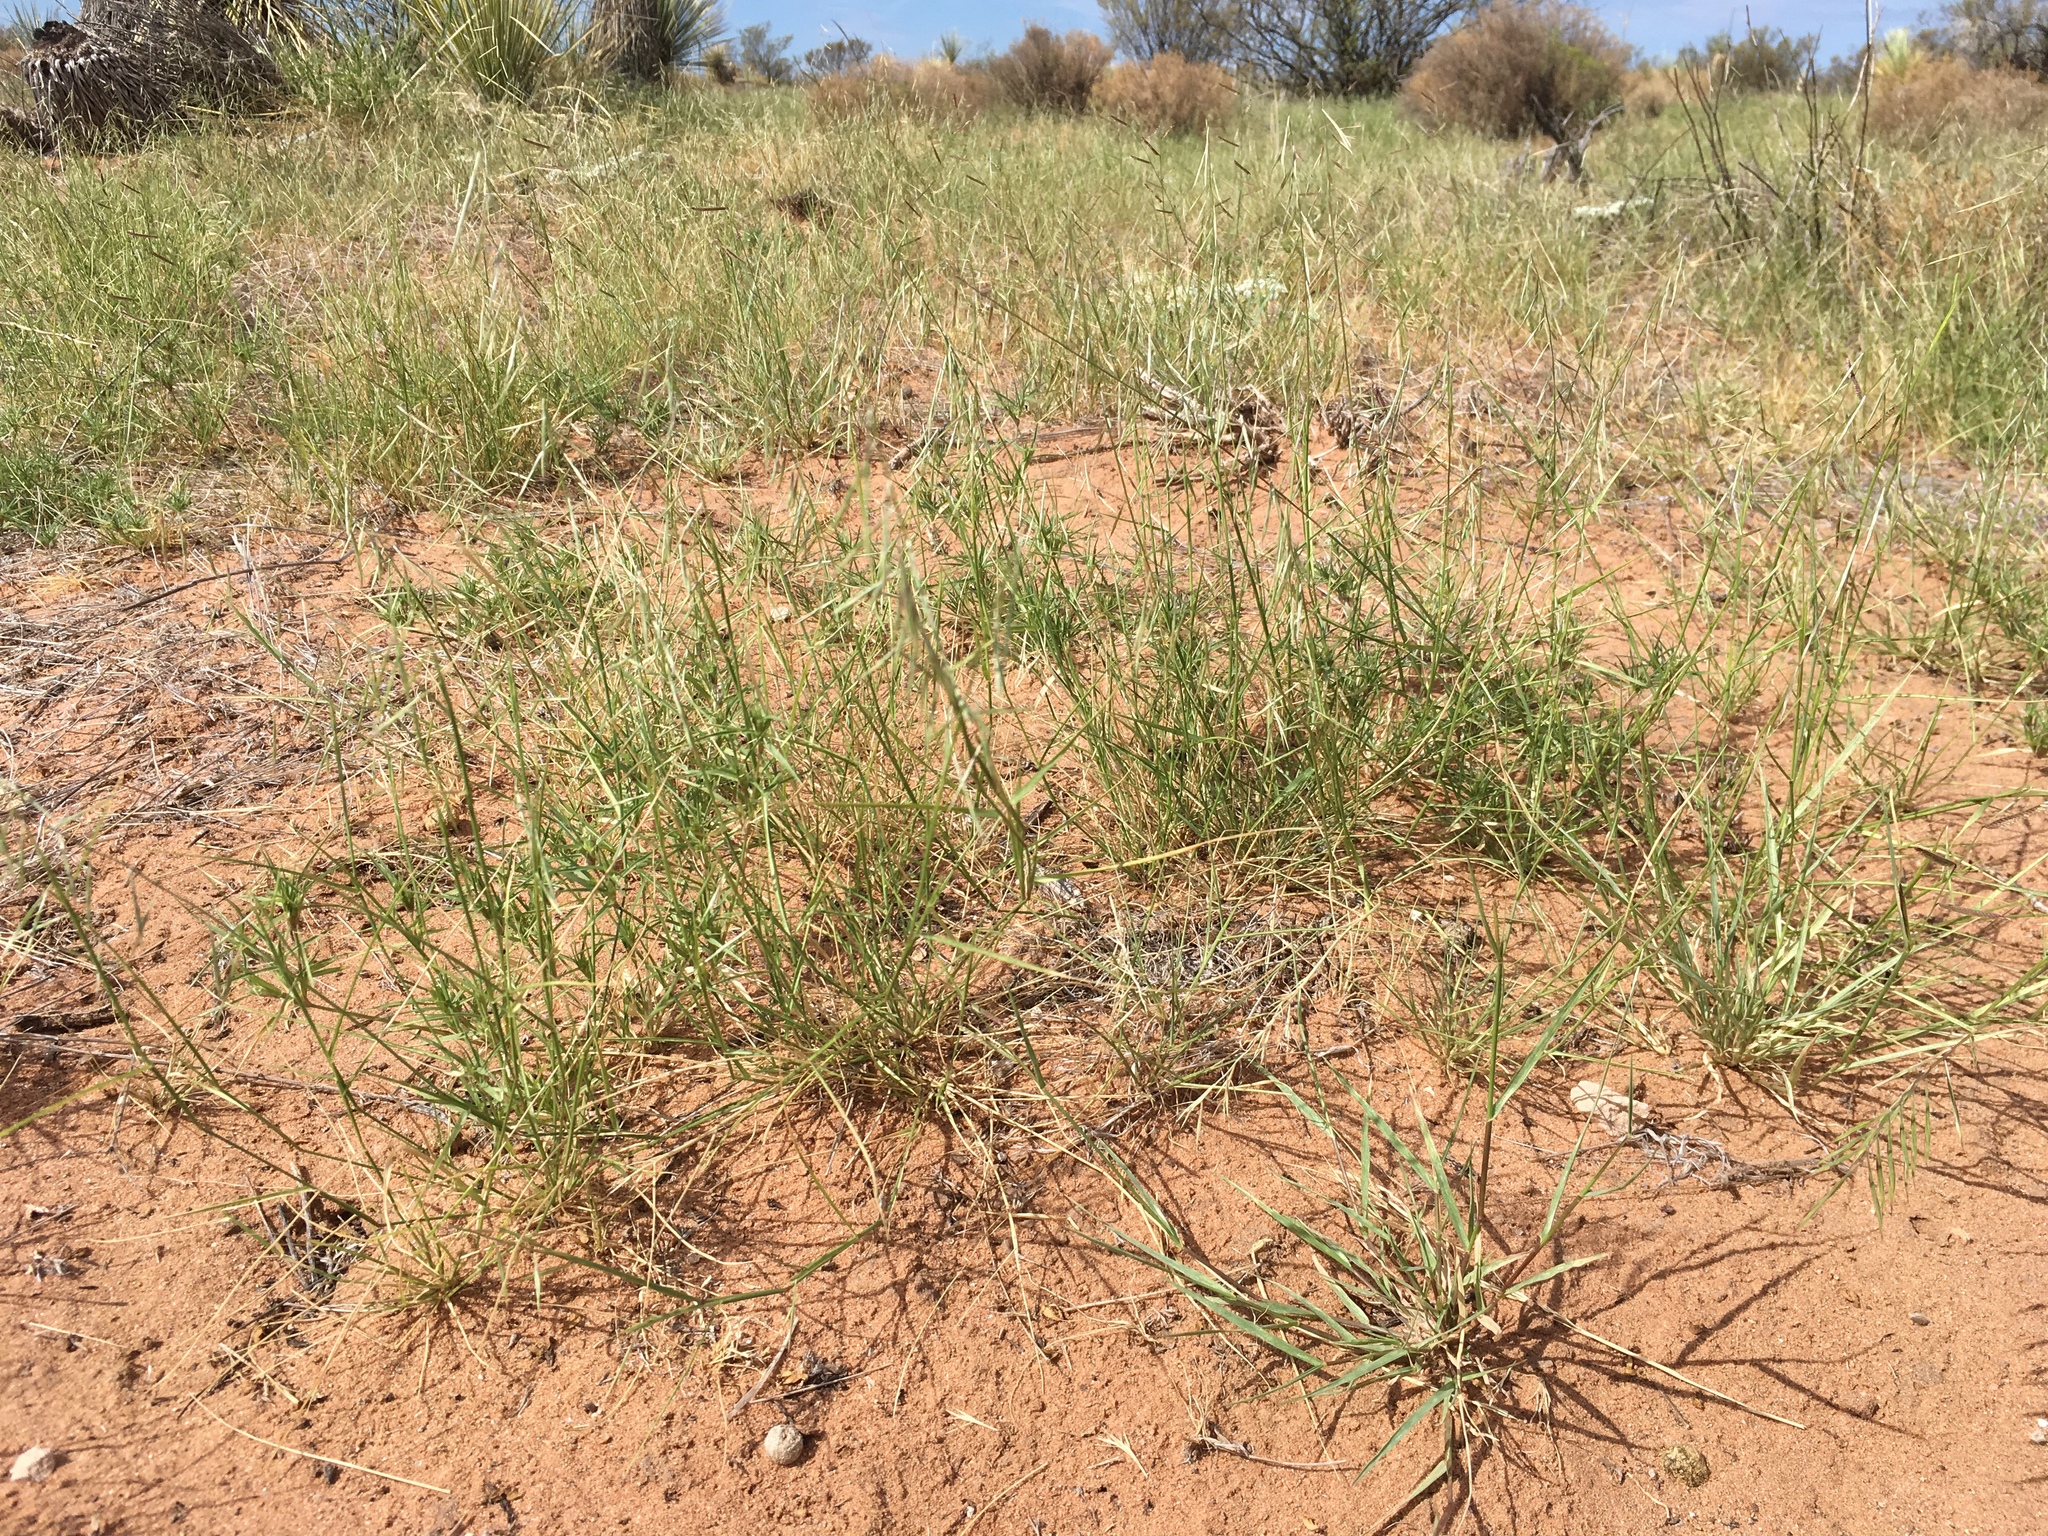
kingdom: Plantae
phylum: Tracheophyta
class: Liliopsida
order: Poales
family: Poaceae
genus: Bouteloua
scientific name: Bouteloua aristidoides
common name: Needle grama
